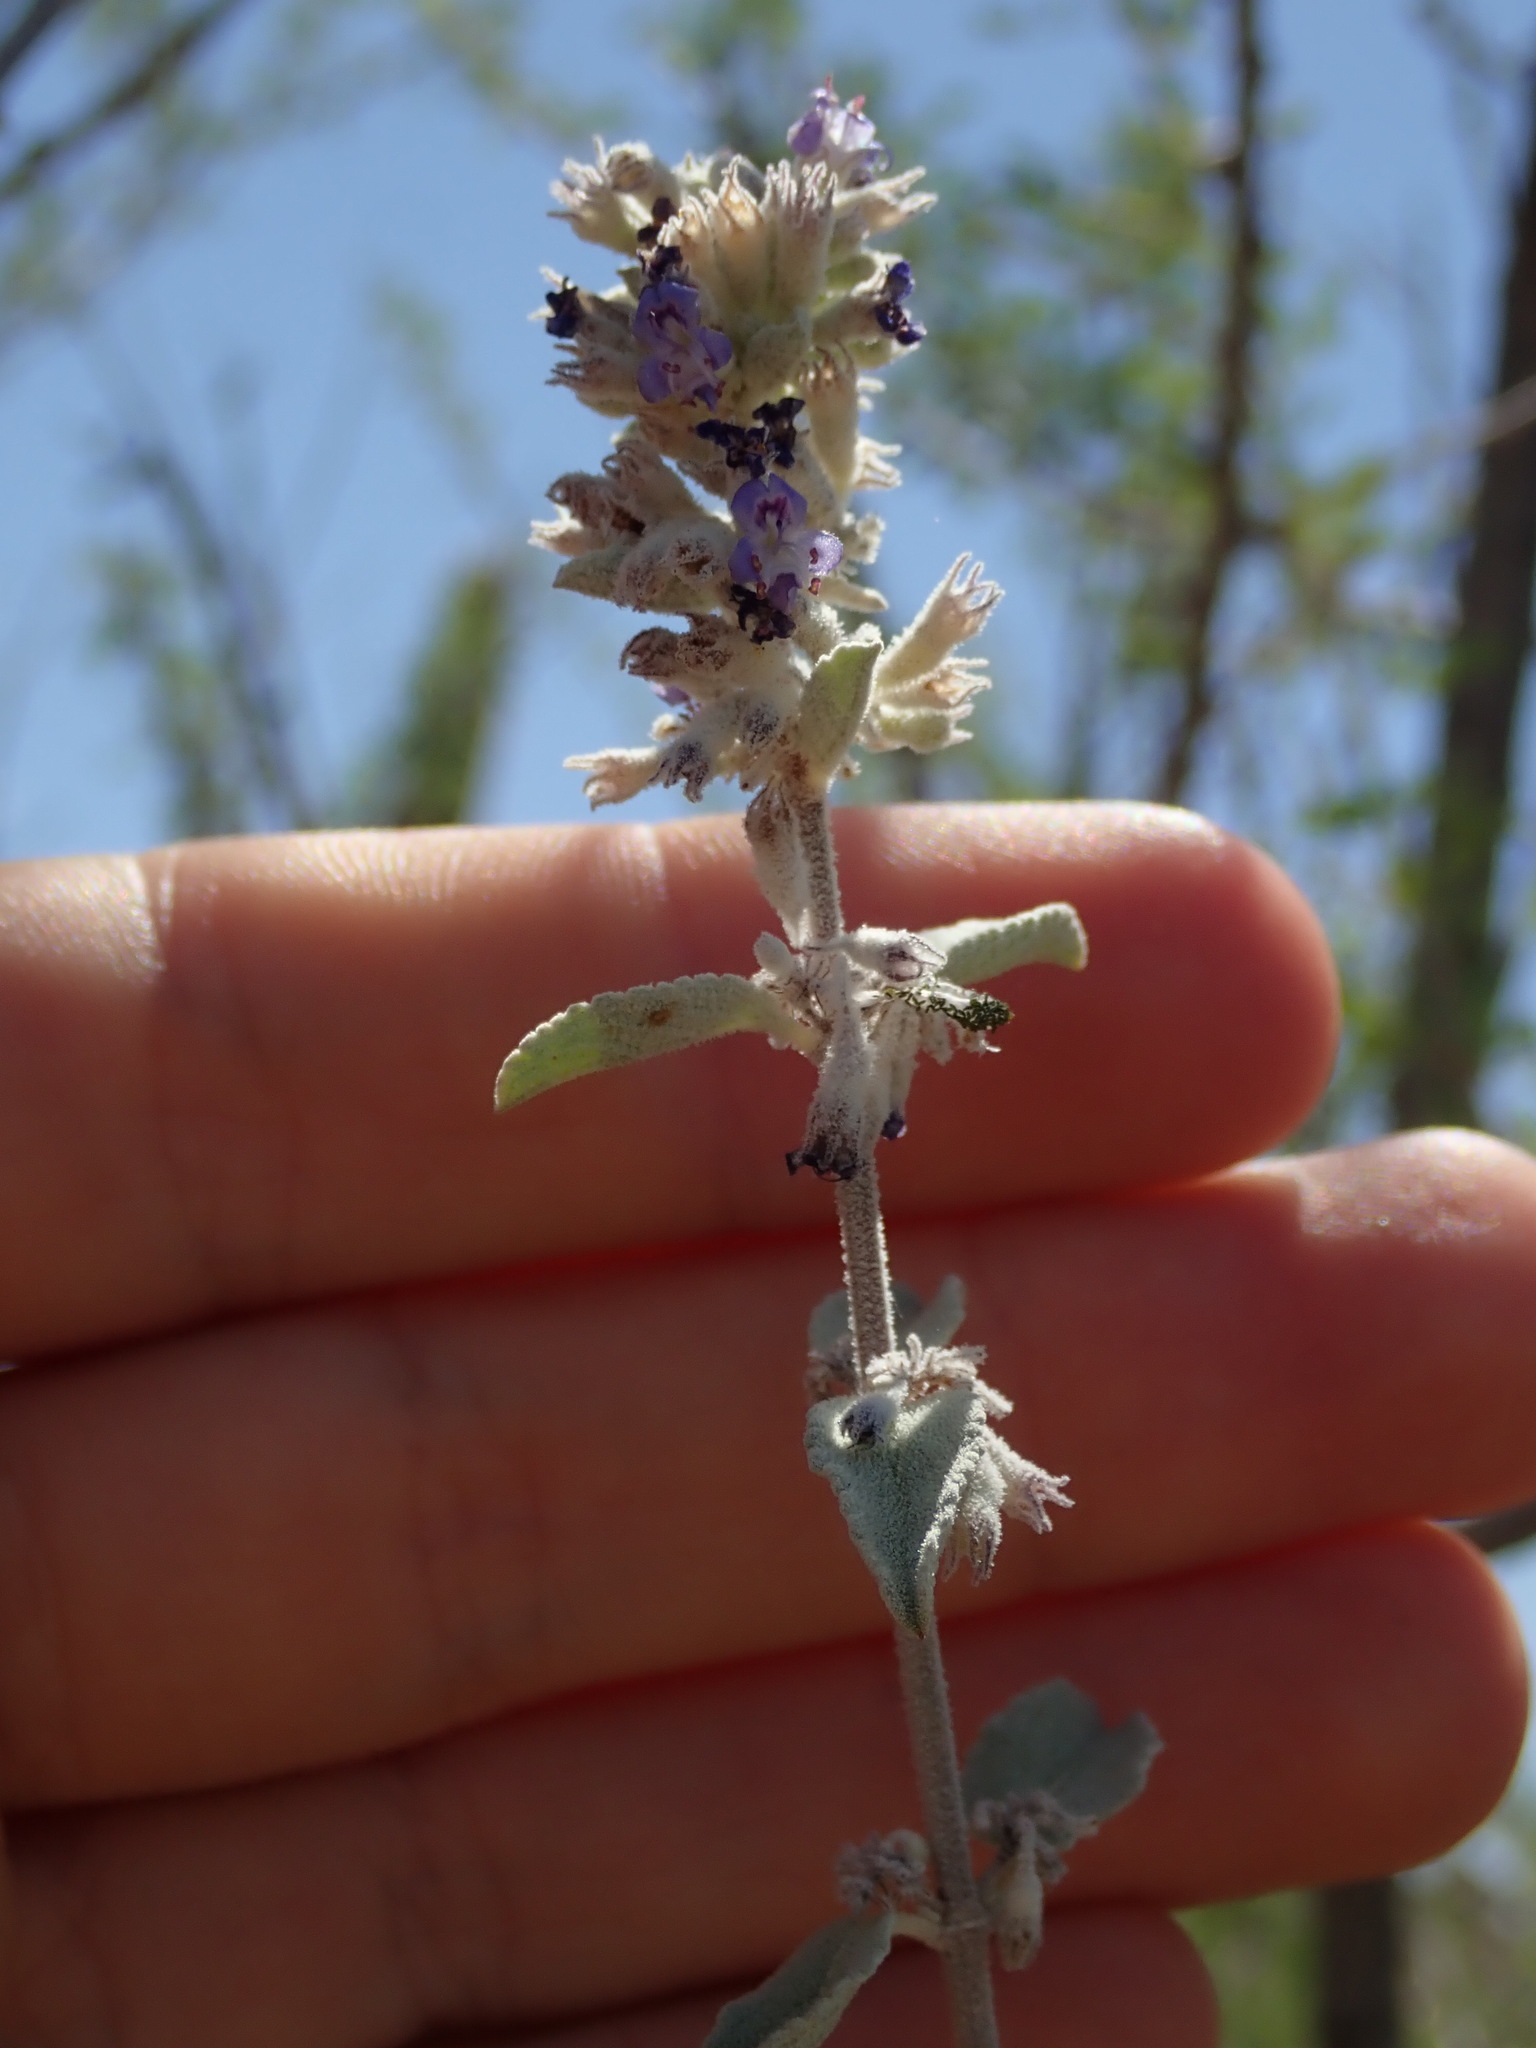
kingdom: Plantae
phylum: Tracheophyta
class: Magnoliopsida
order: Lamiales
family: Lamiaceae
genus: Condea
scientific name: Condea emoryi
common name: Chia
